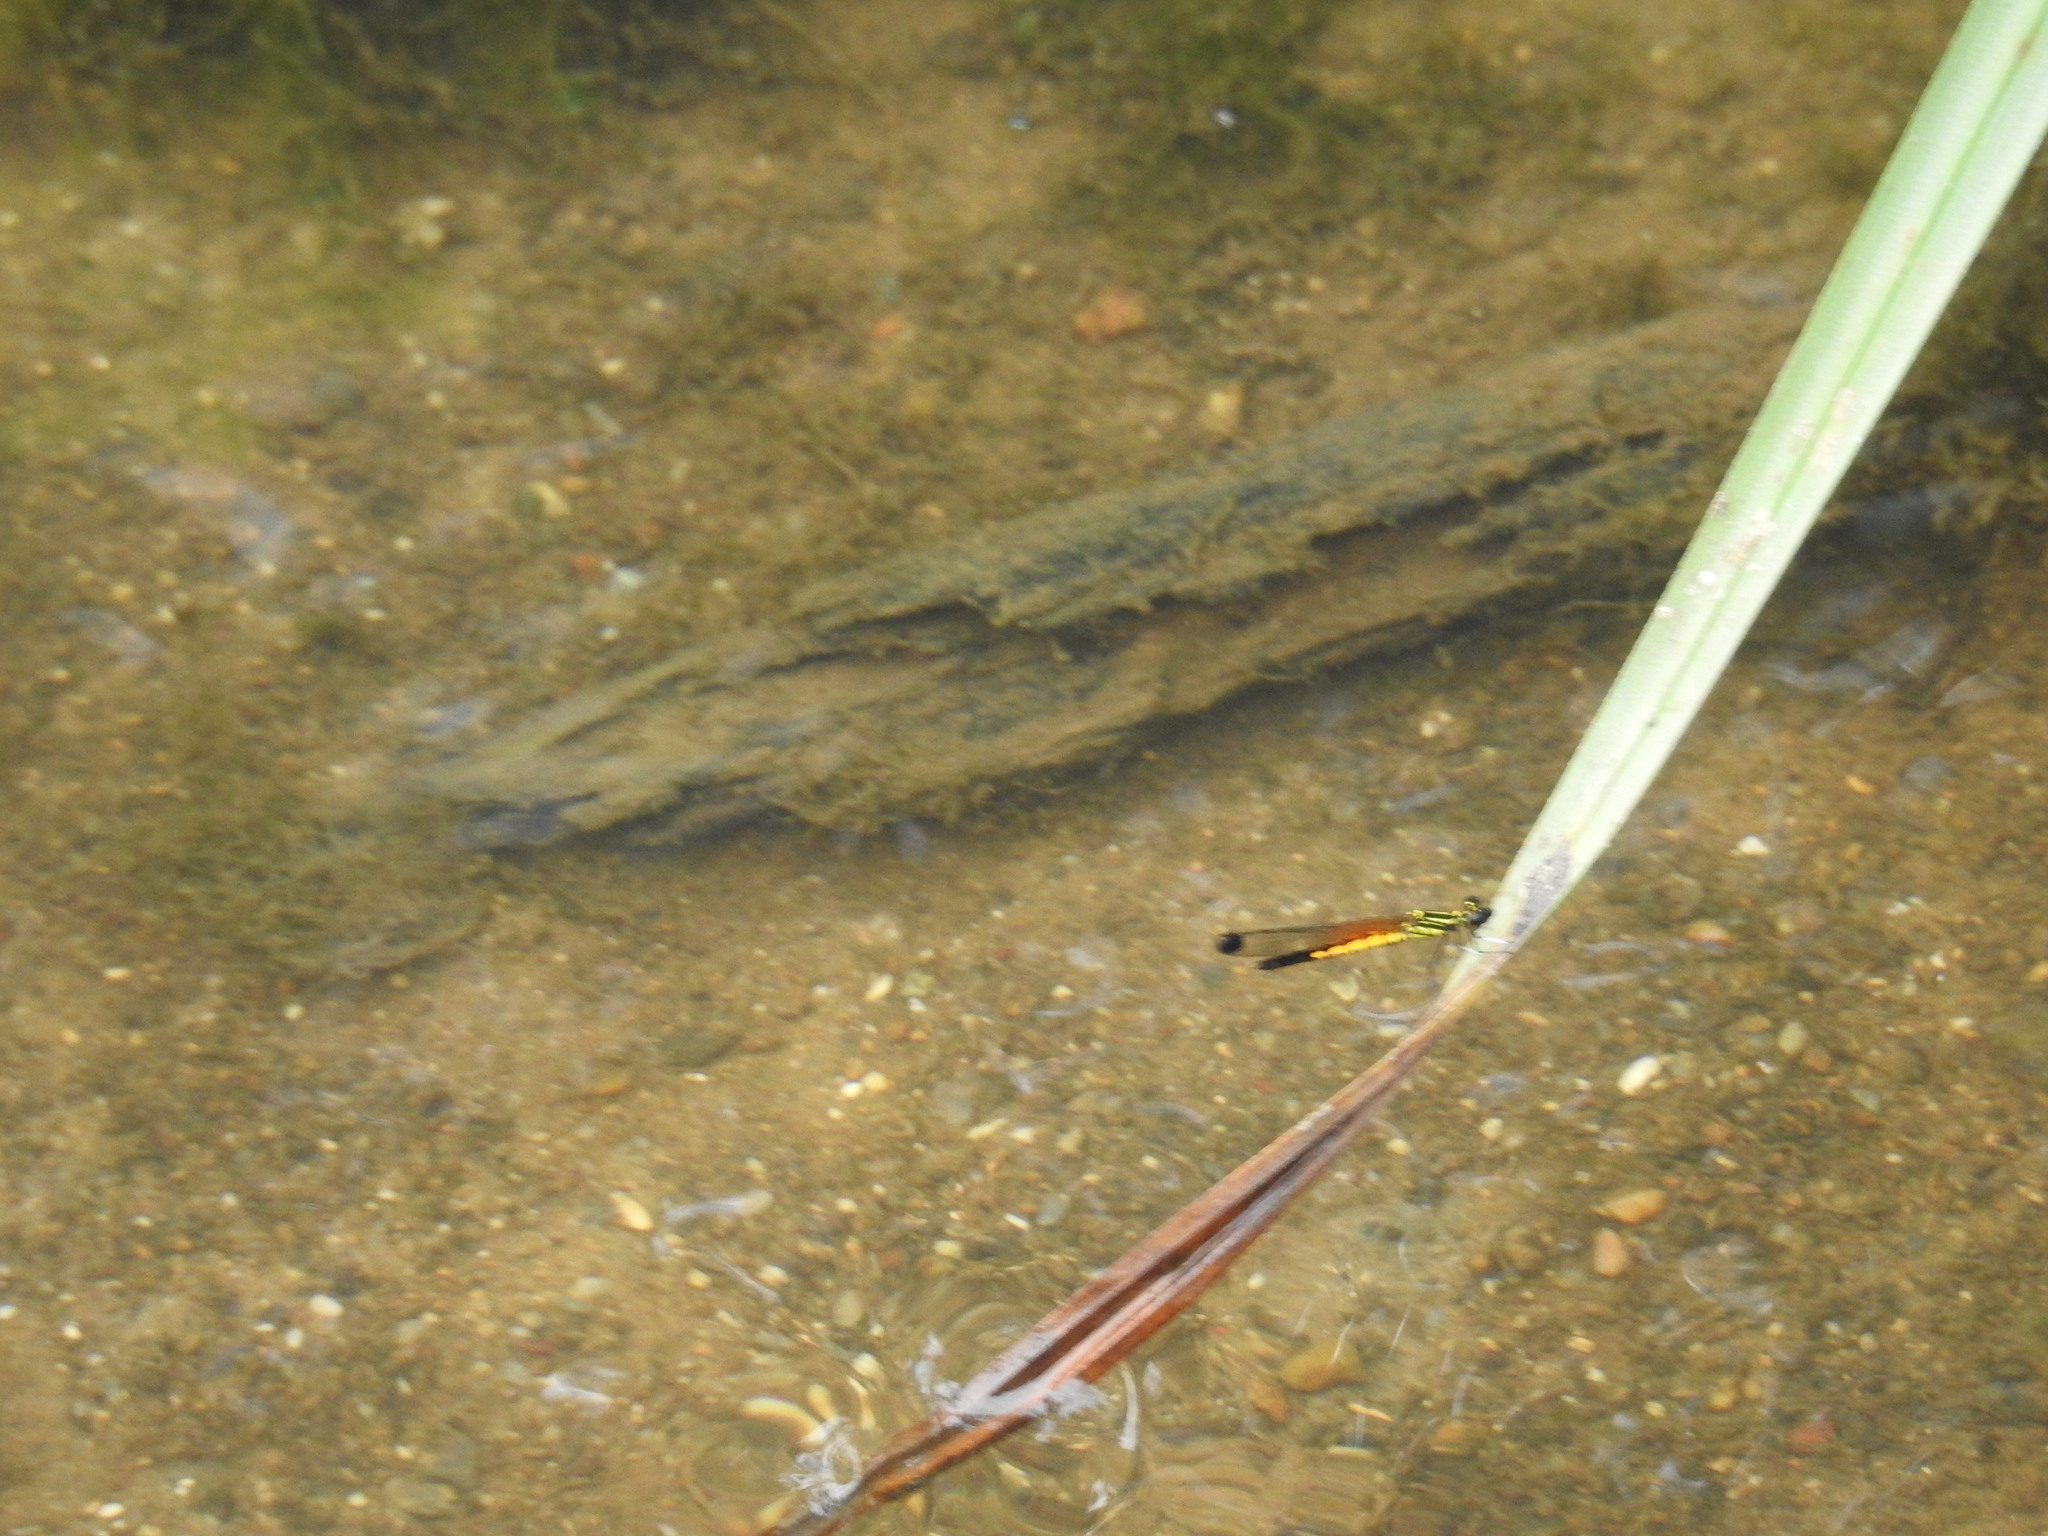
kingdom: Animalia
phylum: Arthropoda
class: Insecta
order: Odonata
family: Chlorocyphidae
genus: Libellago
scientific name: Libellago indica
